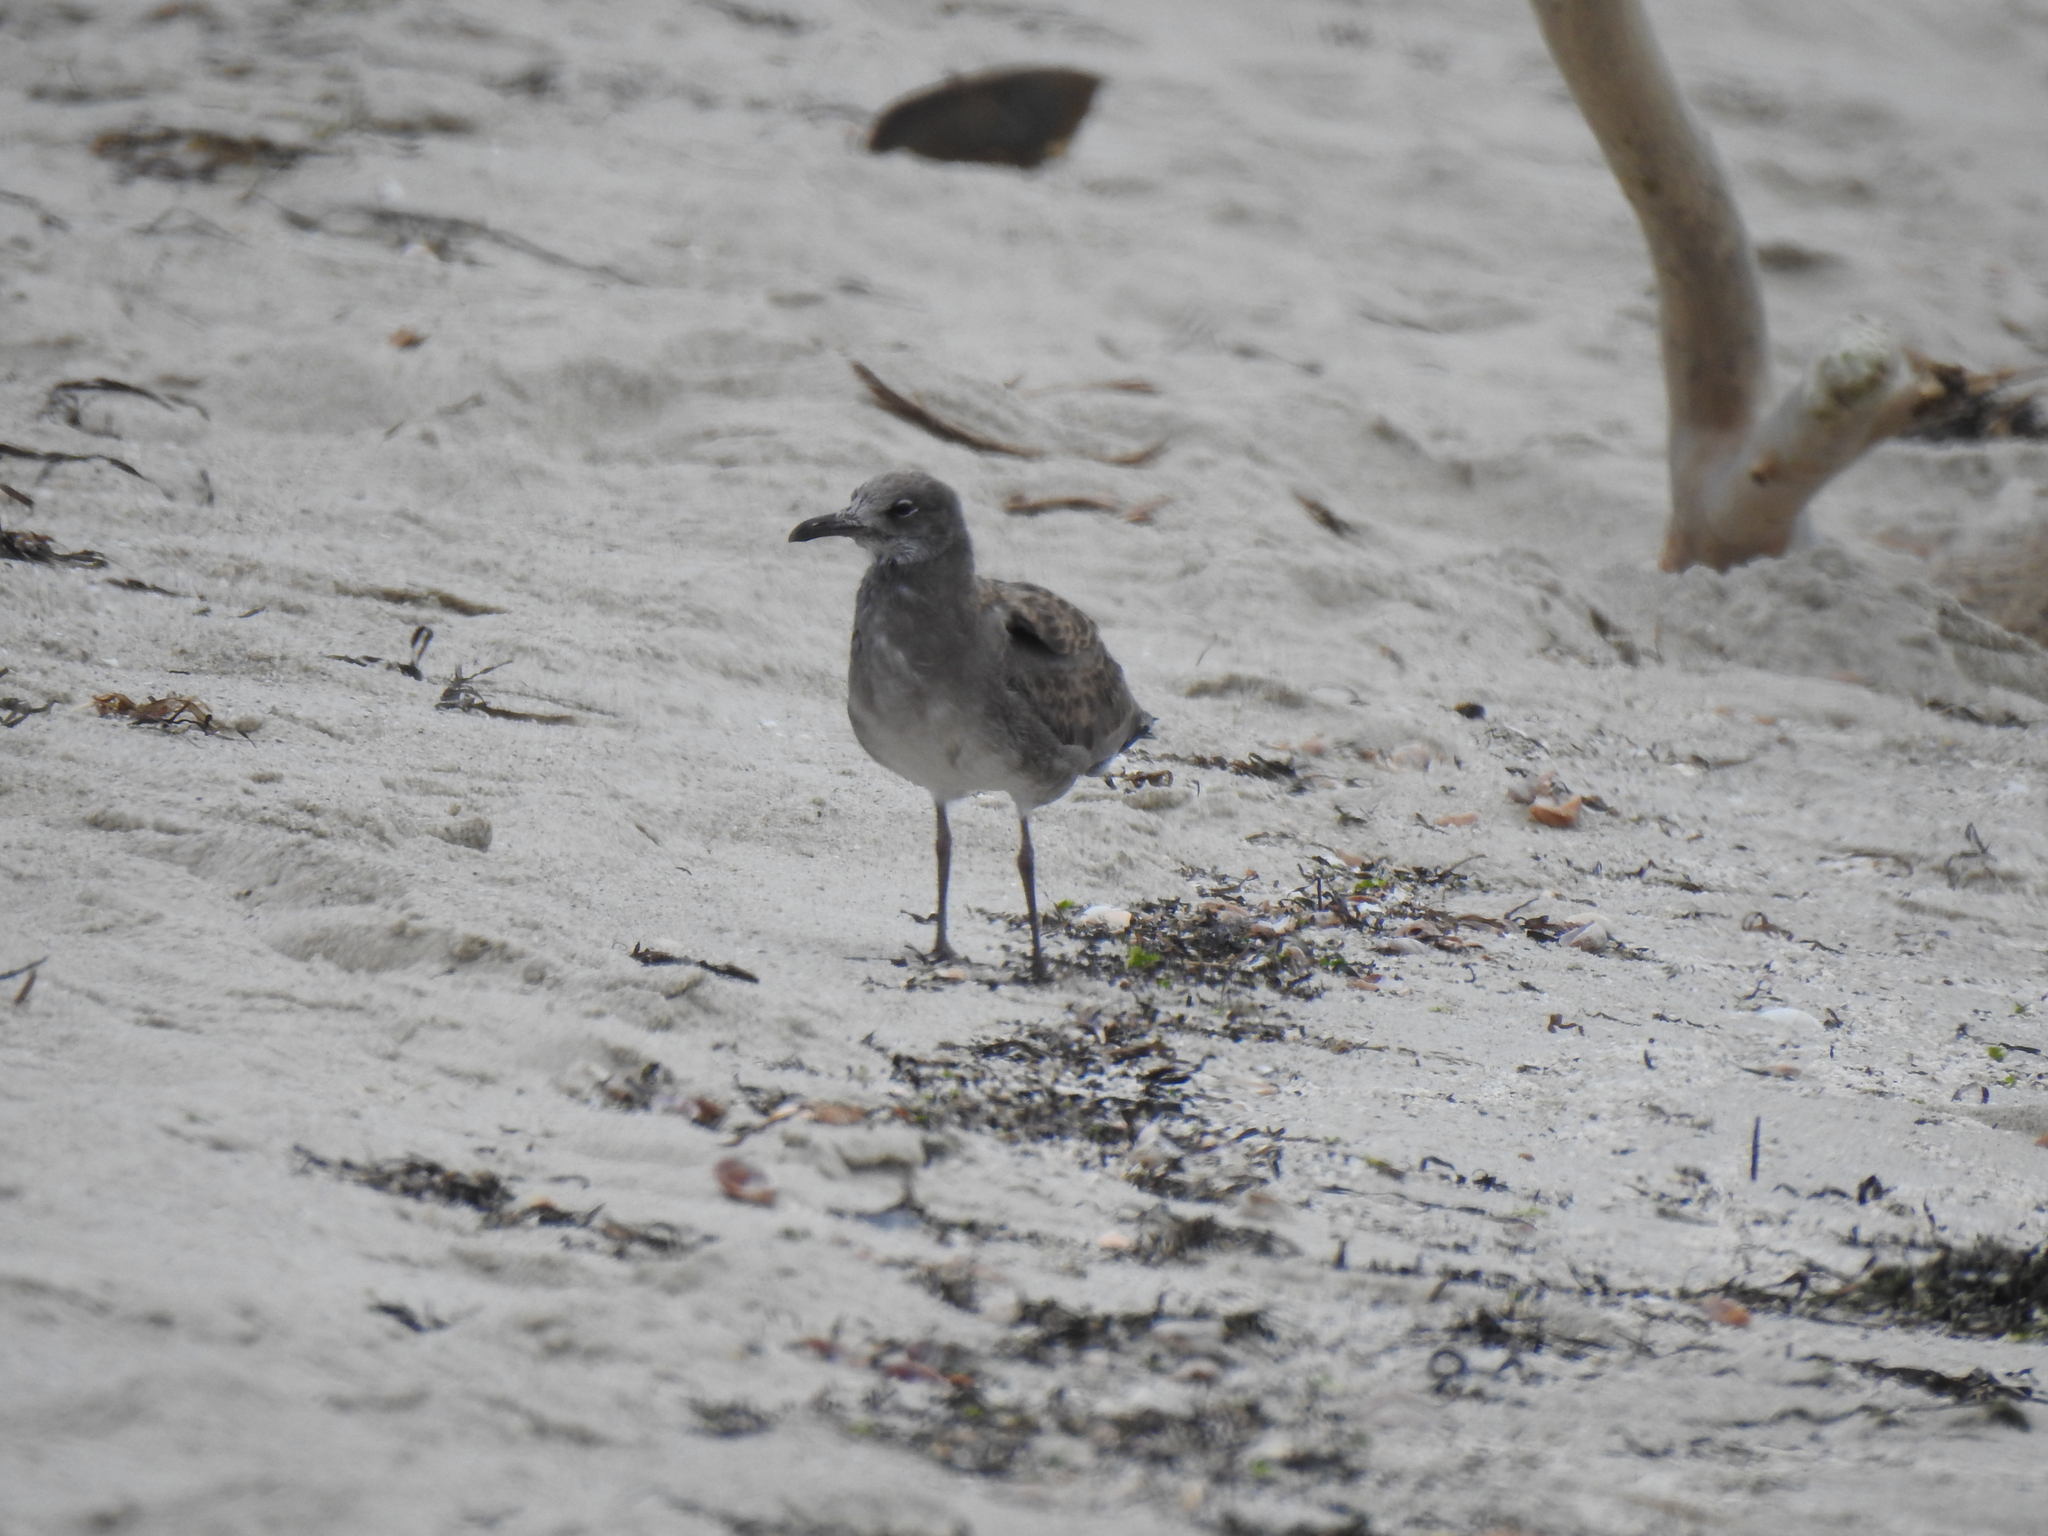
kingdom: Animalia
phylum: Chordata
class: Aves
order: Charadriiformes
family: Laridae
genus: Leucophaeus
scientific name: Leucophaeus atricilla
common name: Laughing gull
